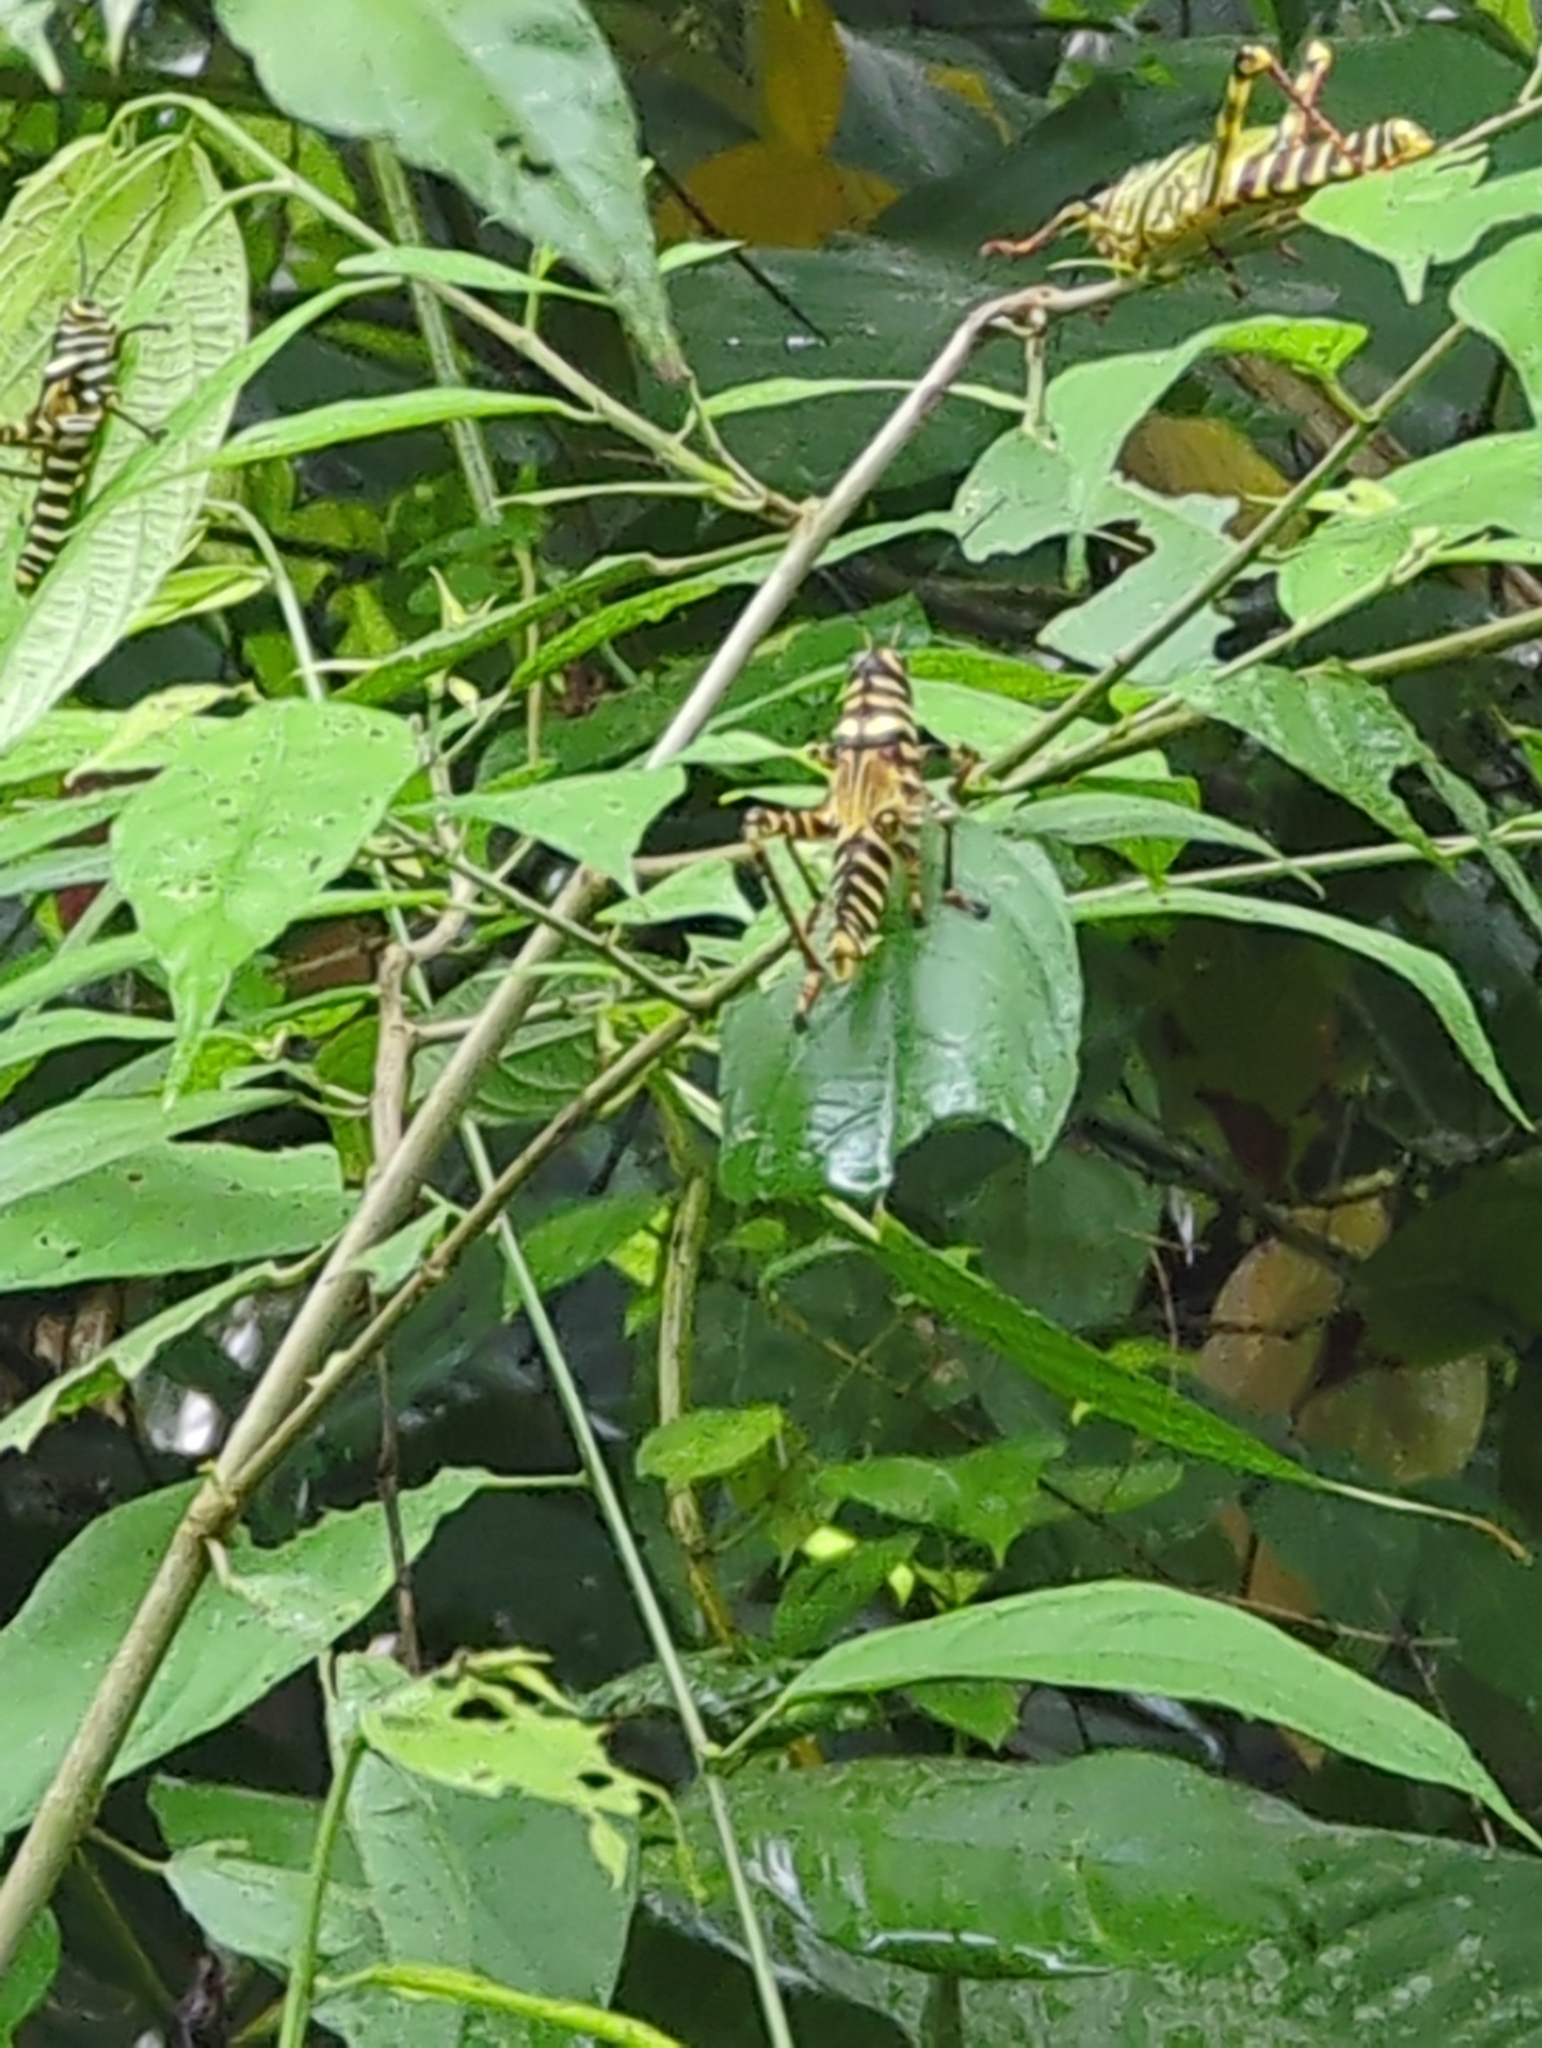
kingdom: Animalia
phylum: Arthropoda
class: Insecta
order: Orthoptera
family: Romaleidae
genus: Tropidacris
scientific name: Tropidacris cristata
